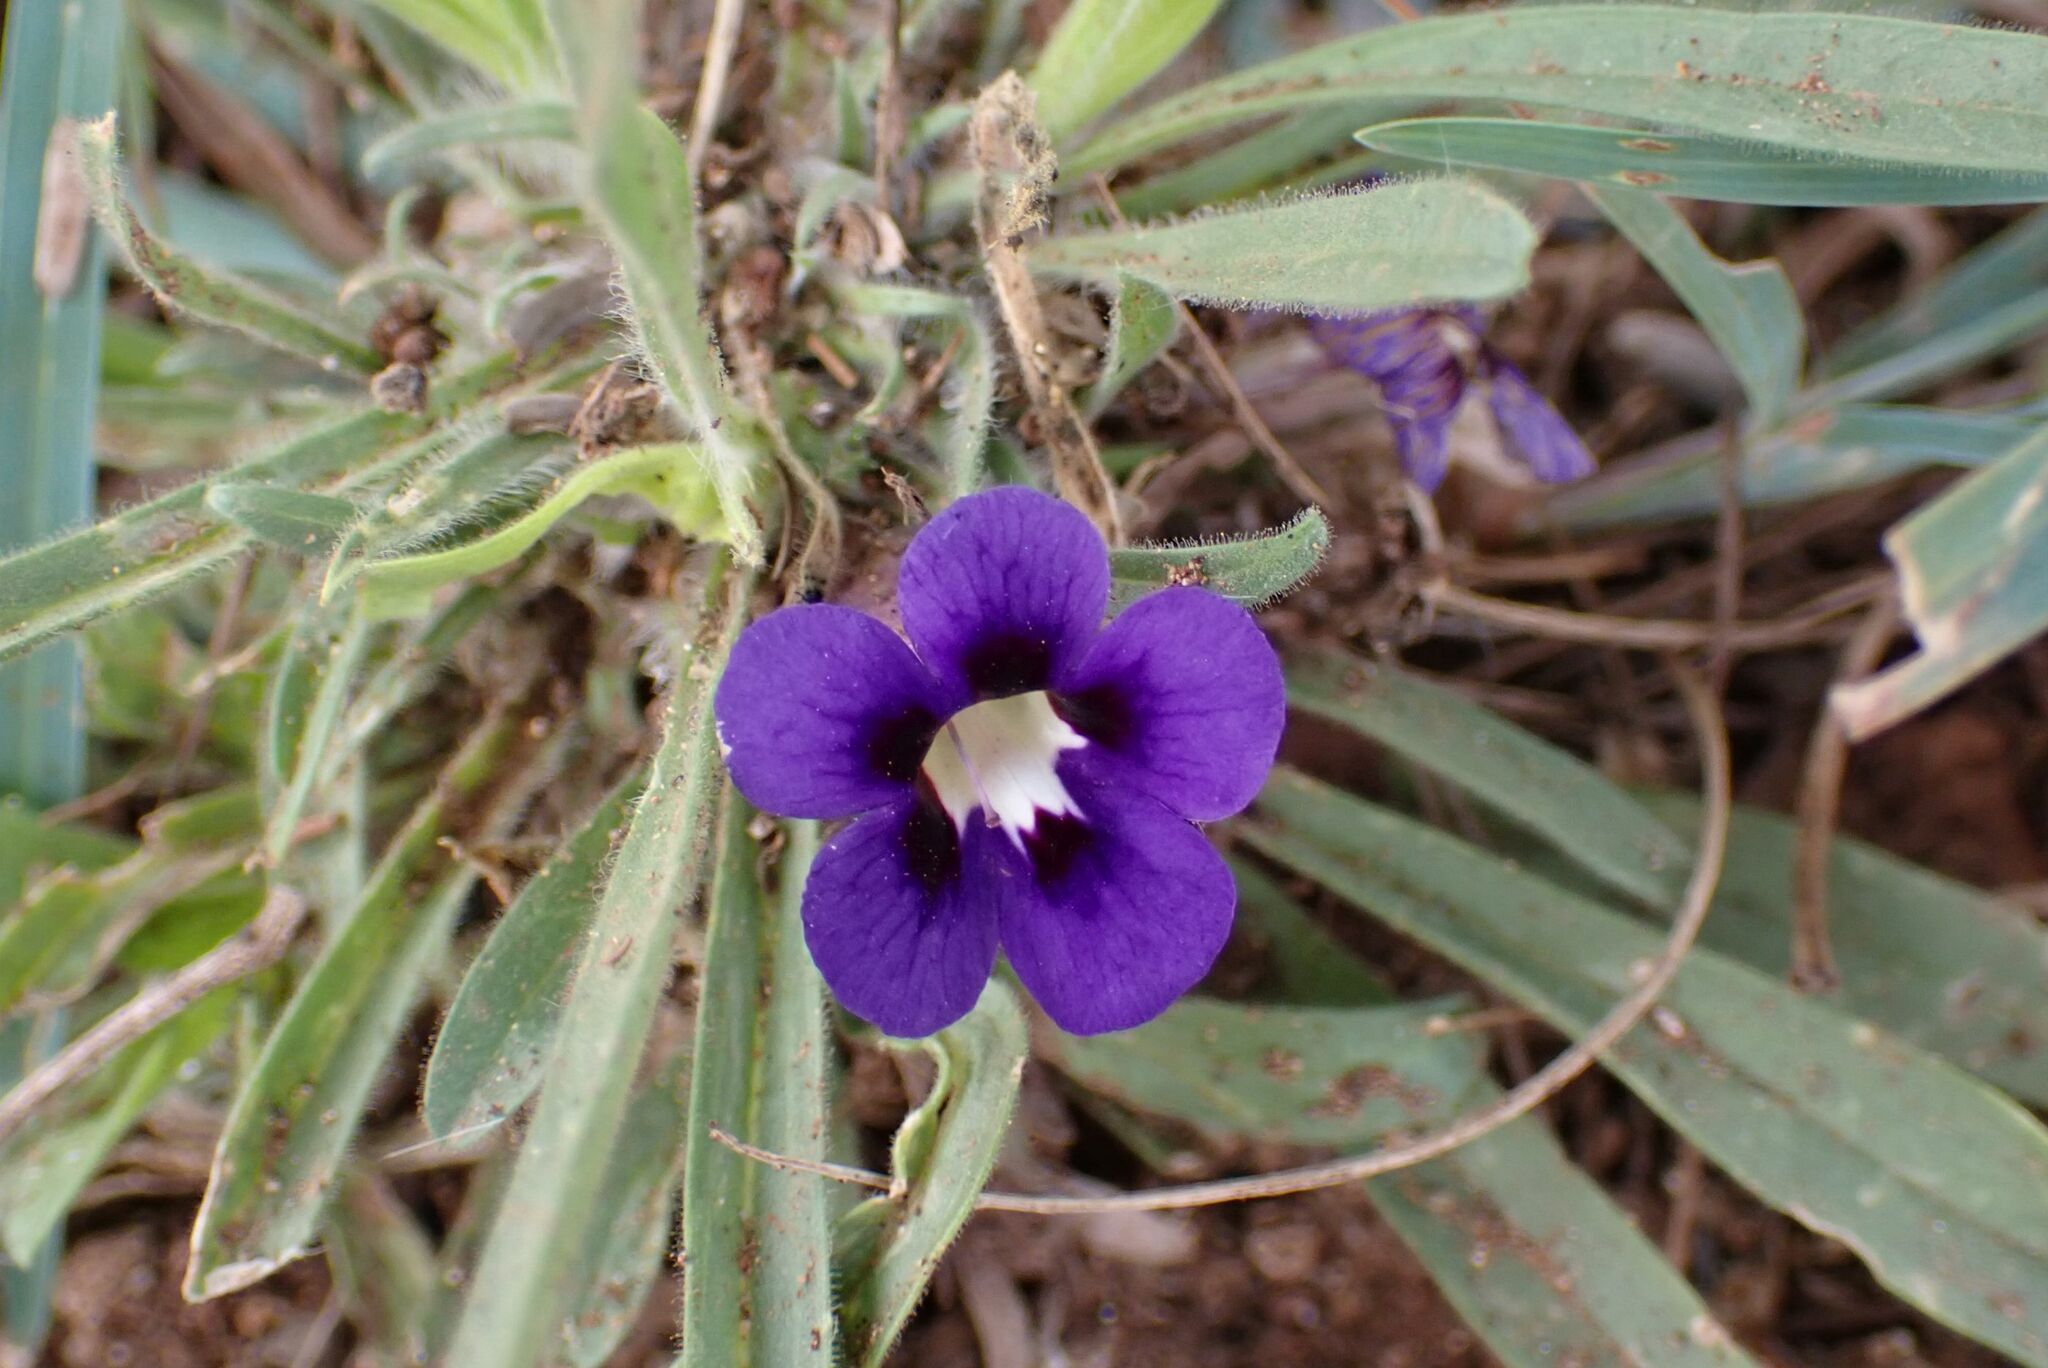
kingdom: Plantae
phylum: Tracheophyta
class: Magnoliopsida
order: Lamiales
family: Scrophulariaceae
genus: Aptosimum
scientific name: Aptosimum lineare
